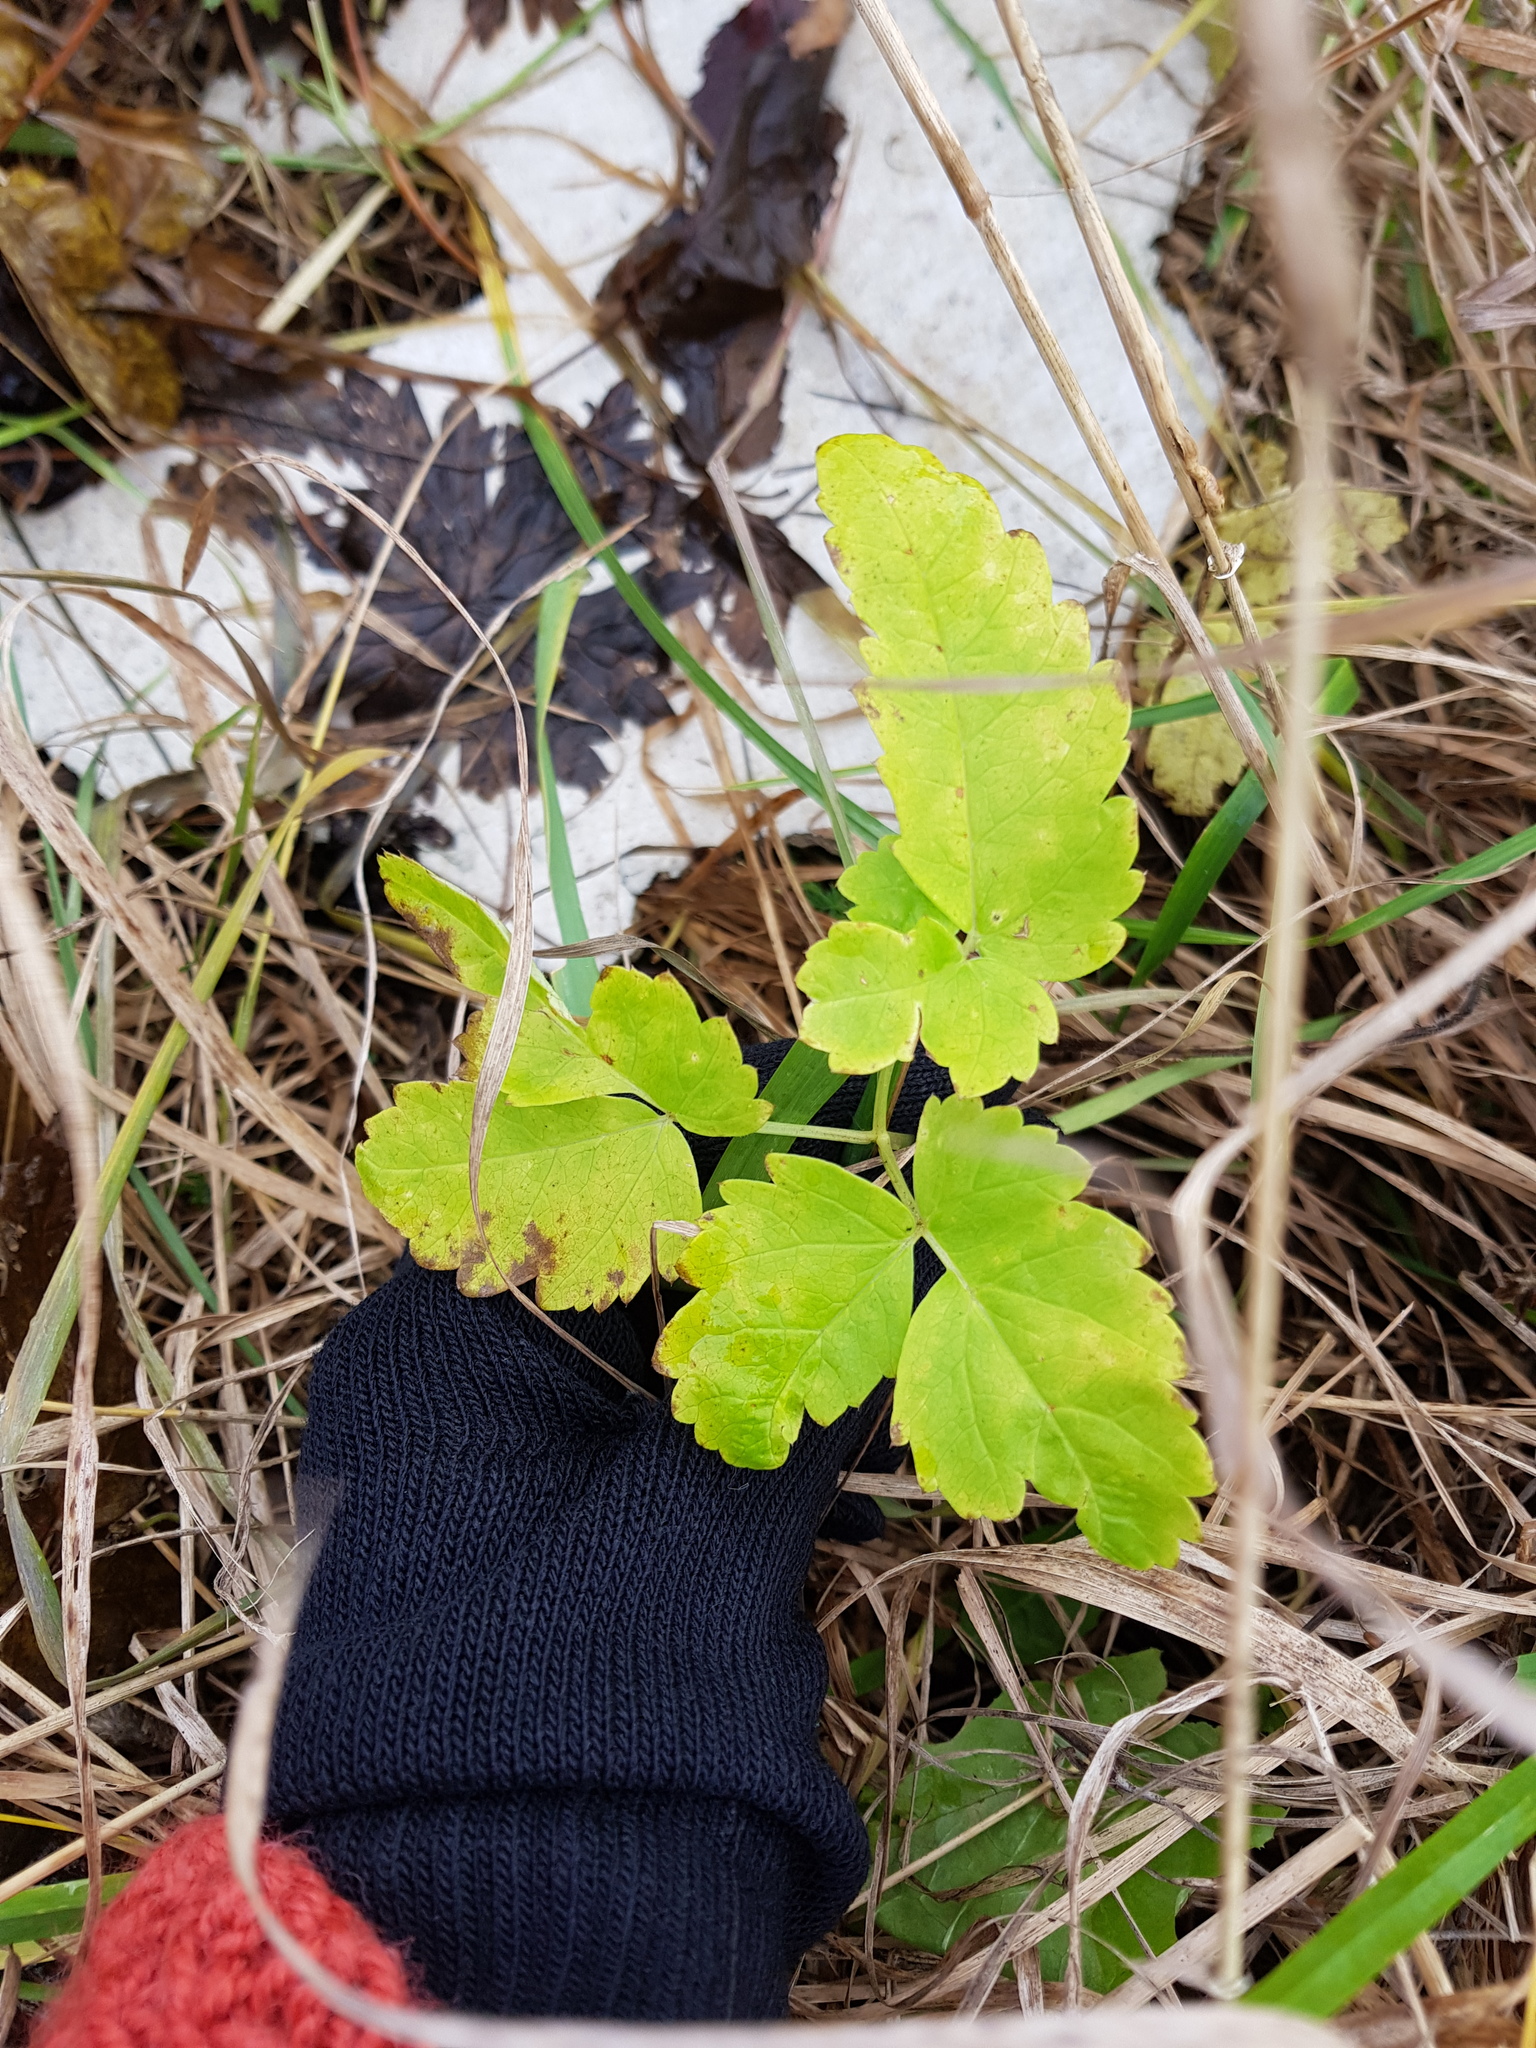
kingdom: Plantae
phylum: Tracheophyta
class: Magnoliopsida
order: Apiales
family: Apiaceae
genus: Aegopodium
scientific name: Aegopodium podagraria
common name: Ground-elder
